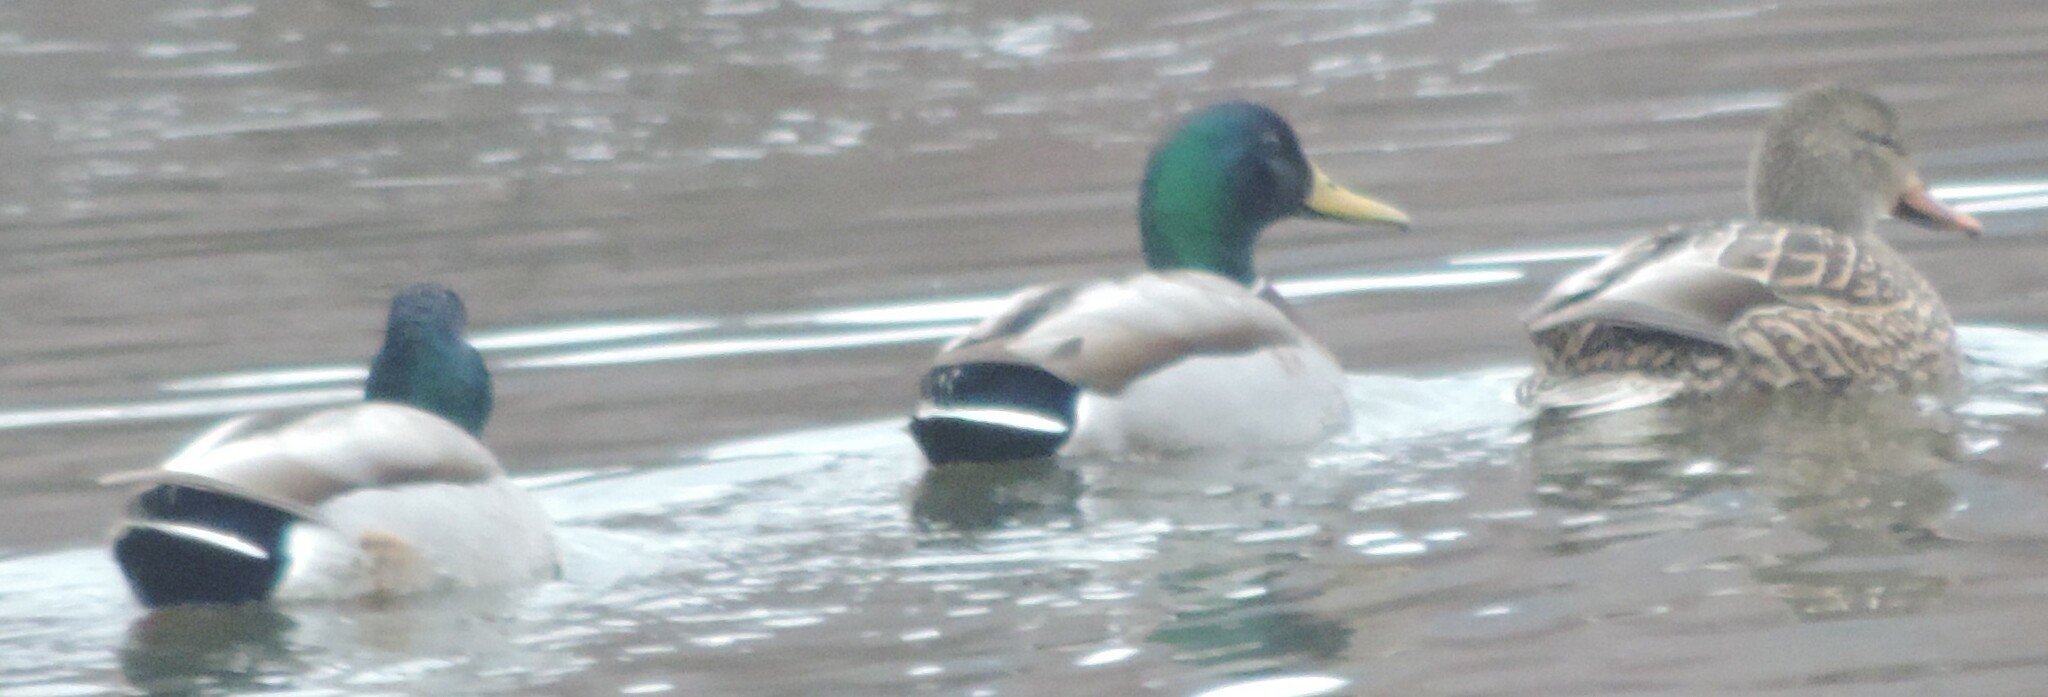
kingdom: Animalia
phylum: Chordata
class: Aves
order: Anseriformes
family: Anatidae
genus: Anas
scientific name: Anas platyrhynchos
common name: Mallard
